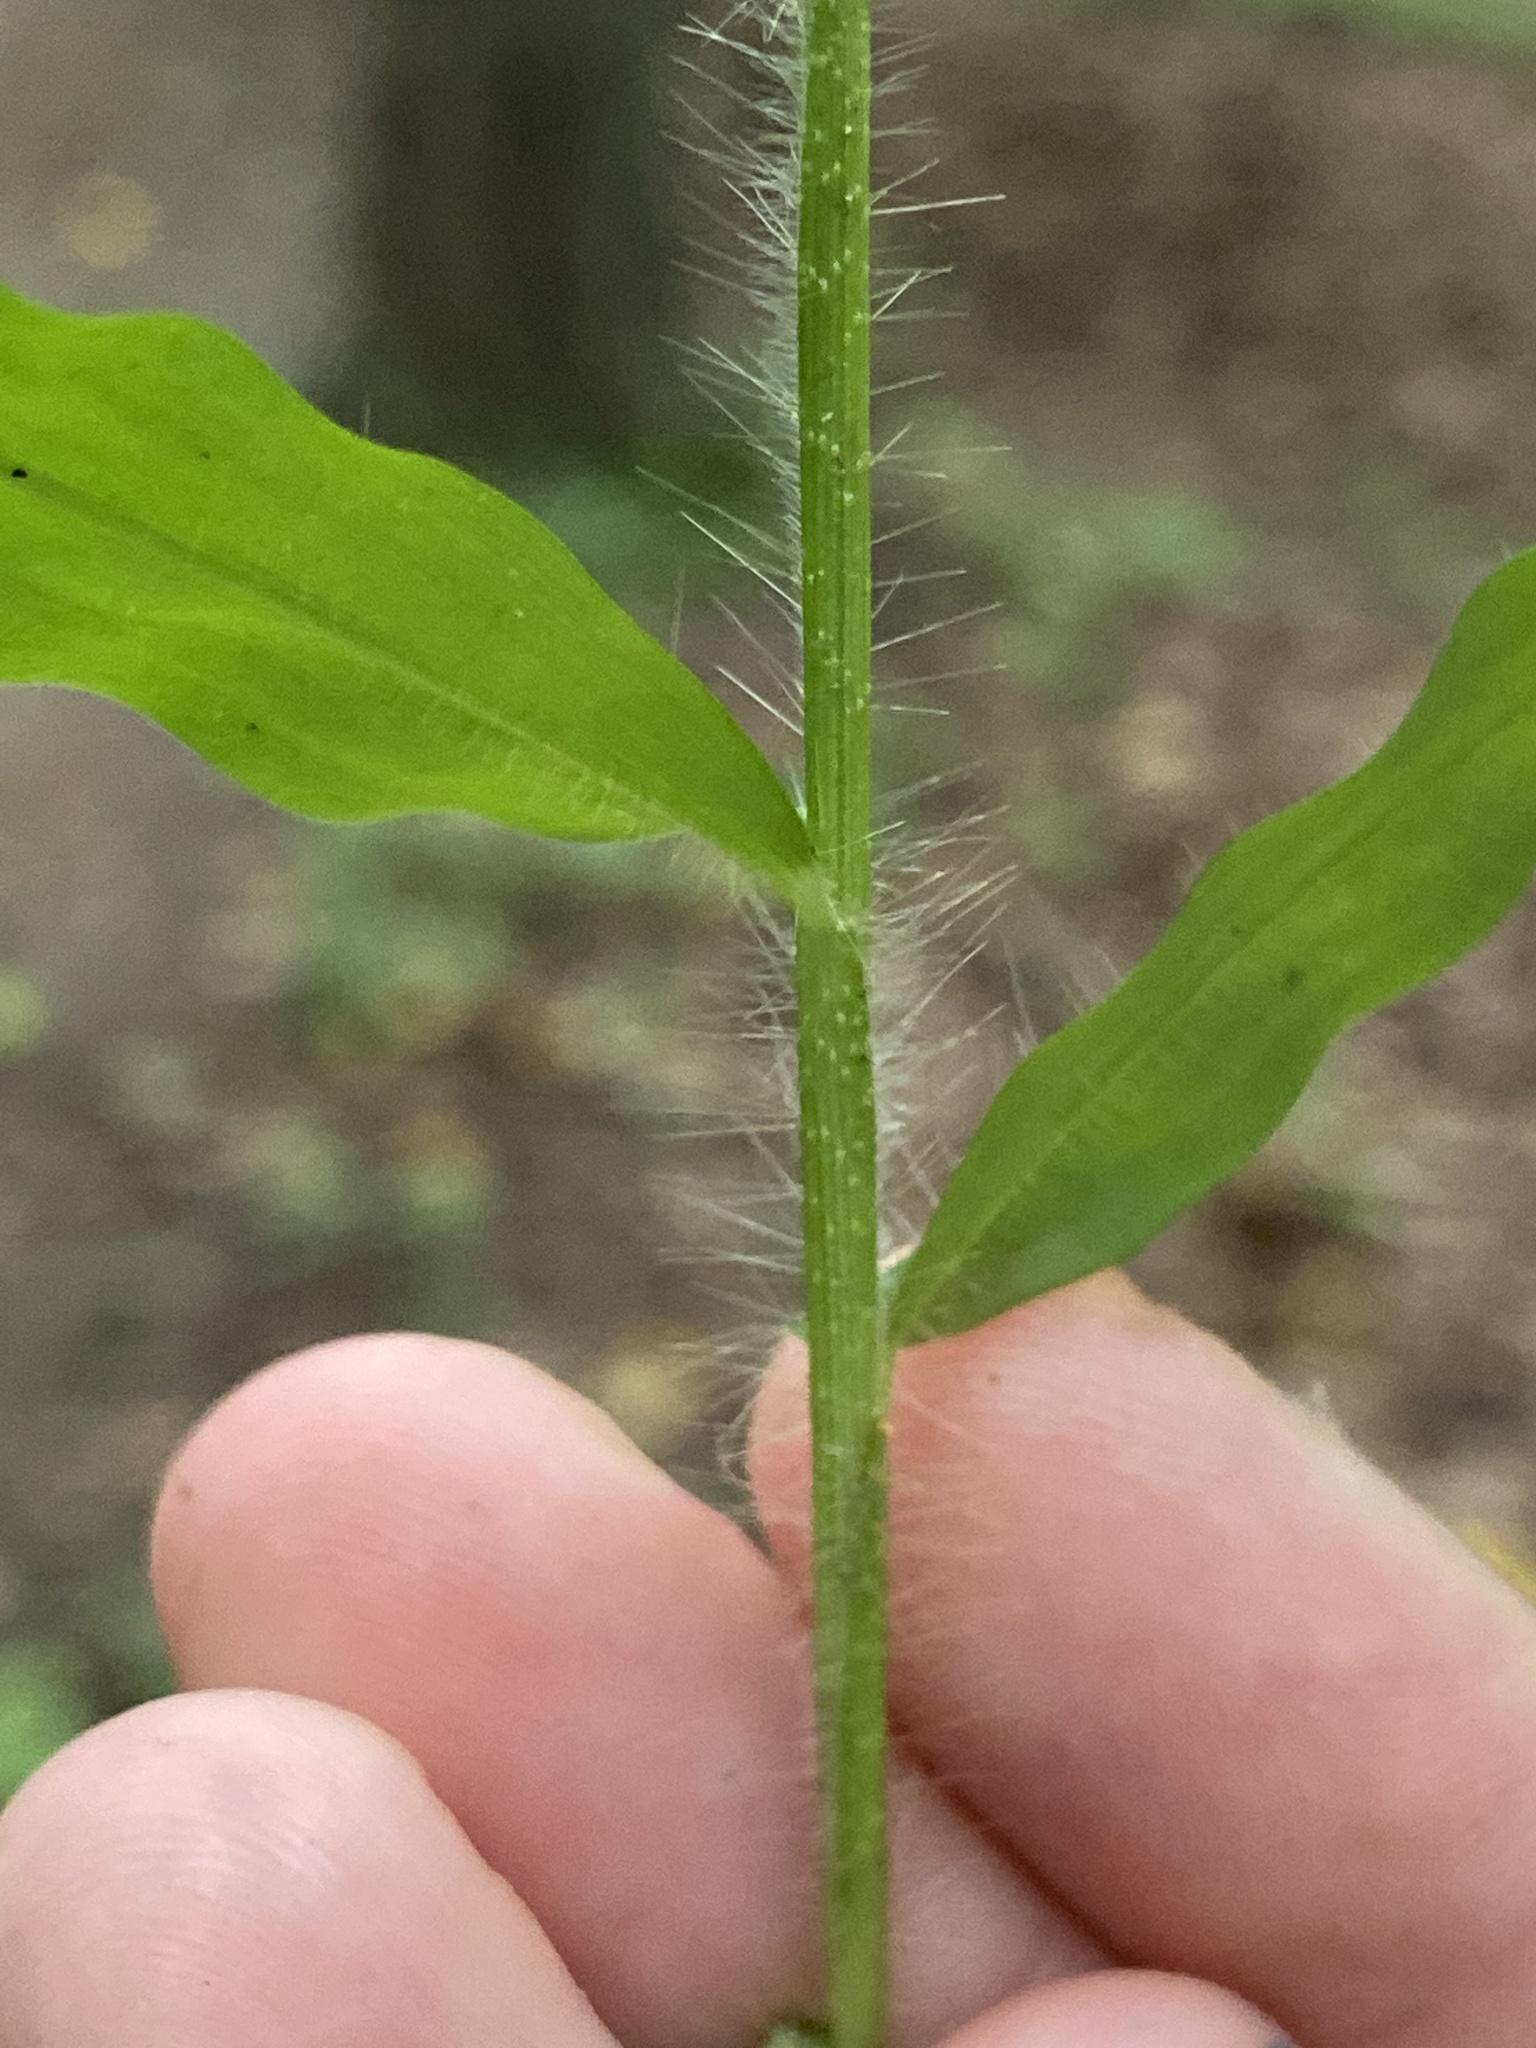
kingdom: Plantae
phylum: Tracheophyta
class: Liliopsida
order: Poales
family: Poaceae
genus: Oplismenus
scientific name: Oplismenus undulatifolius
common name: Wavyleaf basketgrass
